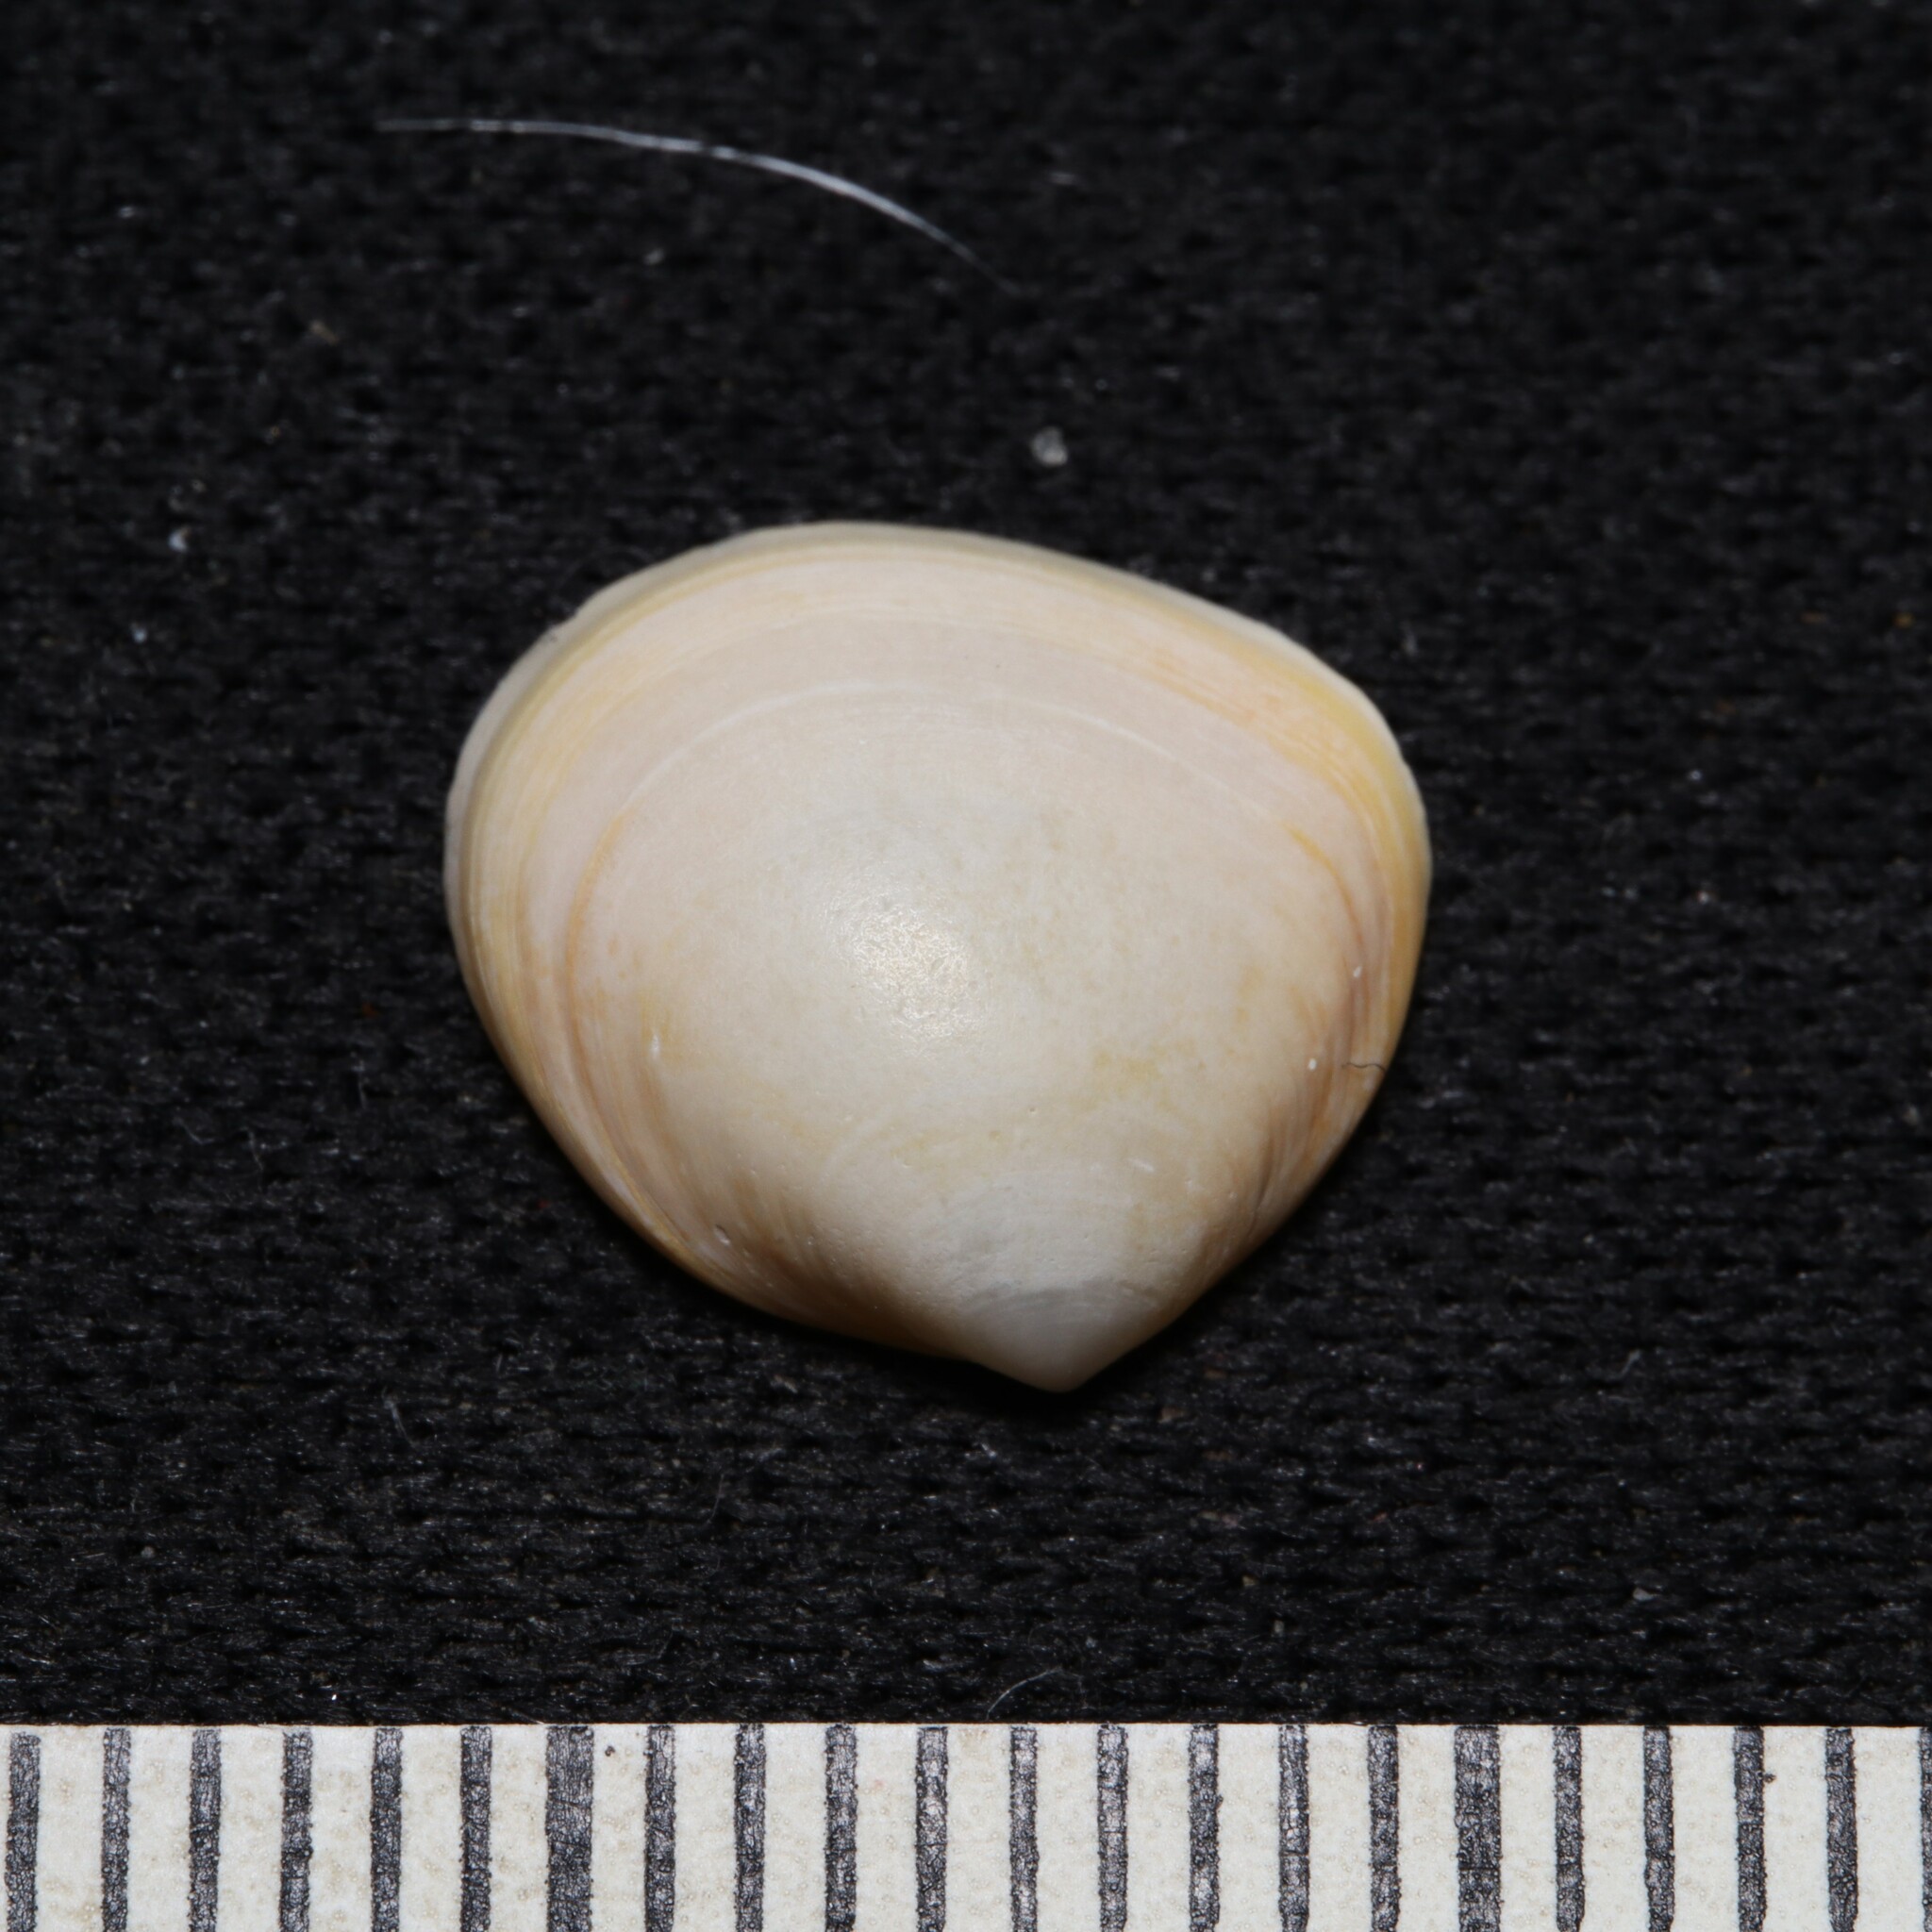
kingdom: Animalia
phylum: Mollusca
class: Bivalvia
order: Cardiida
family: Cardiidae
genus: Laevicardium
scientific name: Laevicardium mortoni
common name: Morton eggcockle
